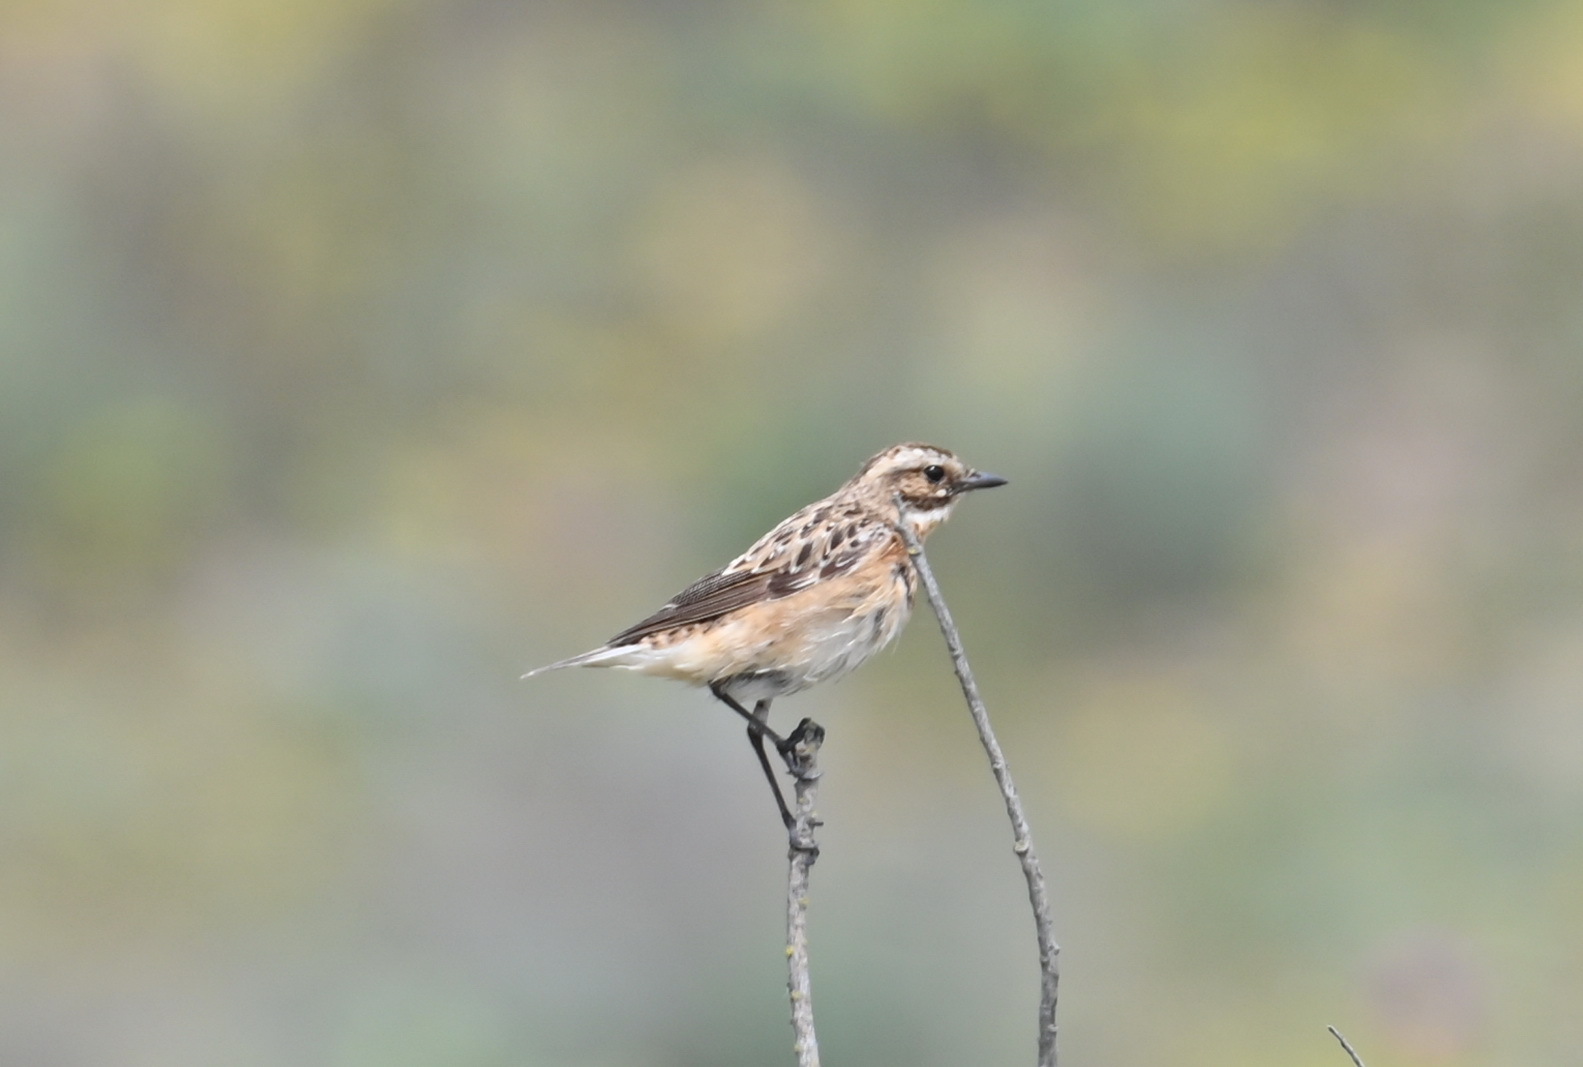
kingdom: Animalia
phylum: Chordata
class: Aves
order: Passeriformes
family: Muscicapidae
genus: Saxicola
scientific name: Saxicola rubetra
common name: Whinchat
